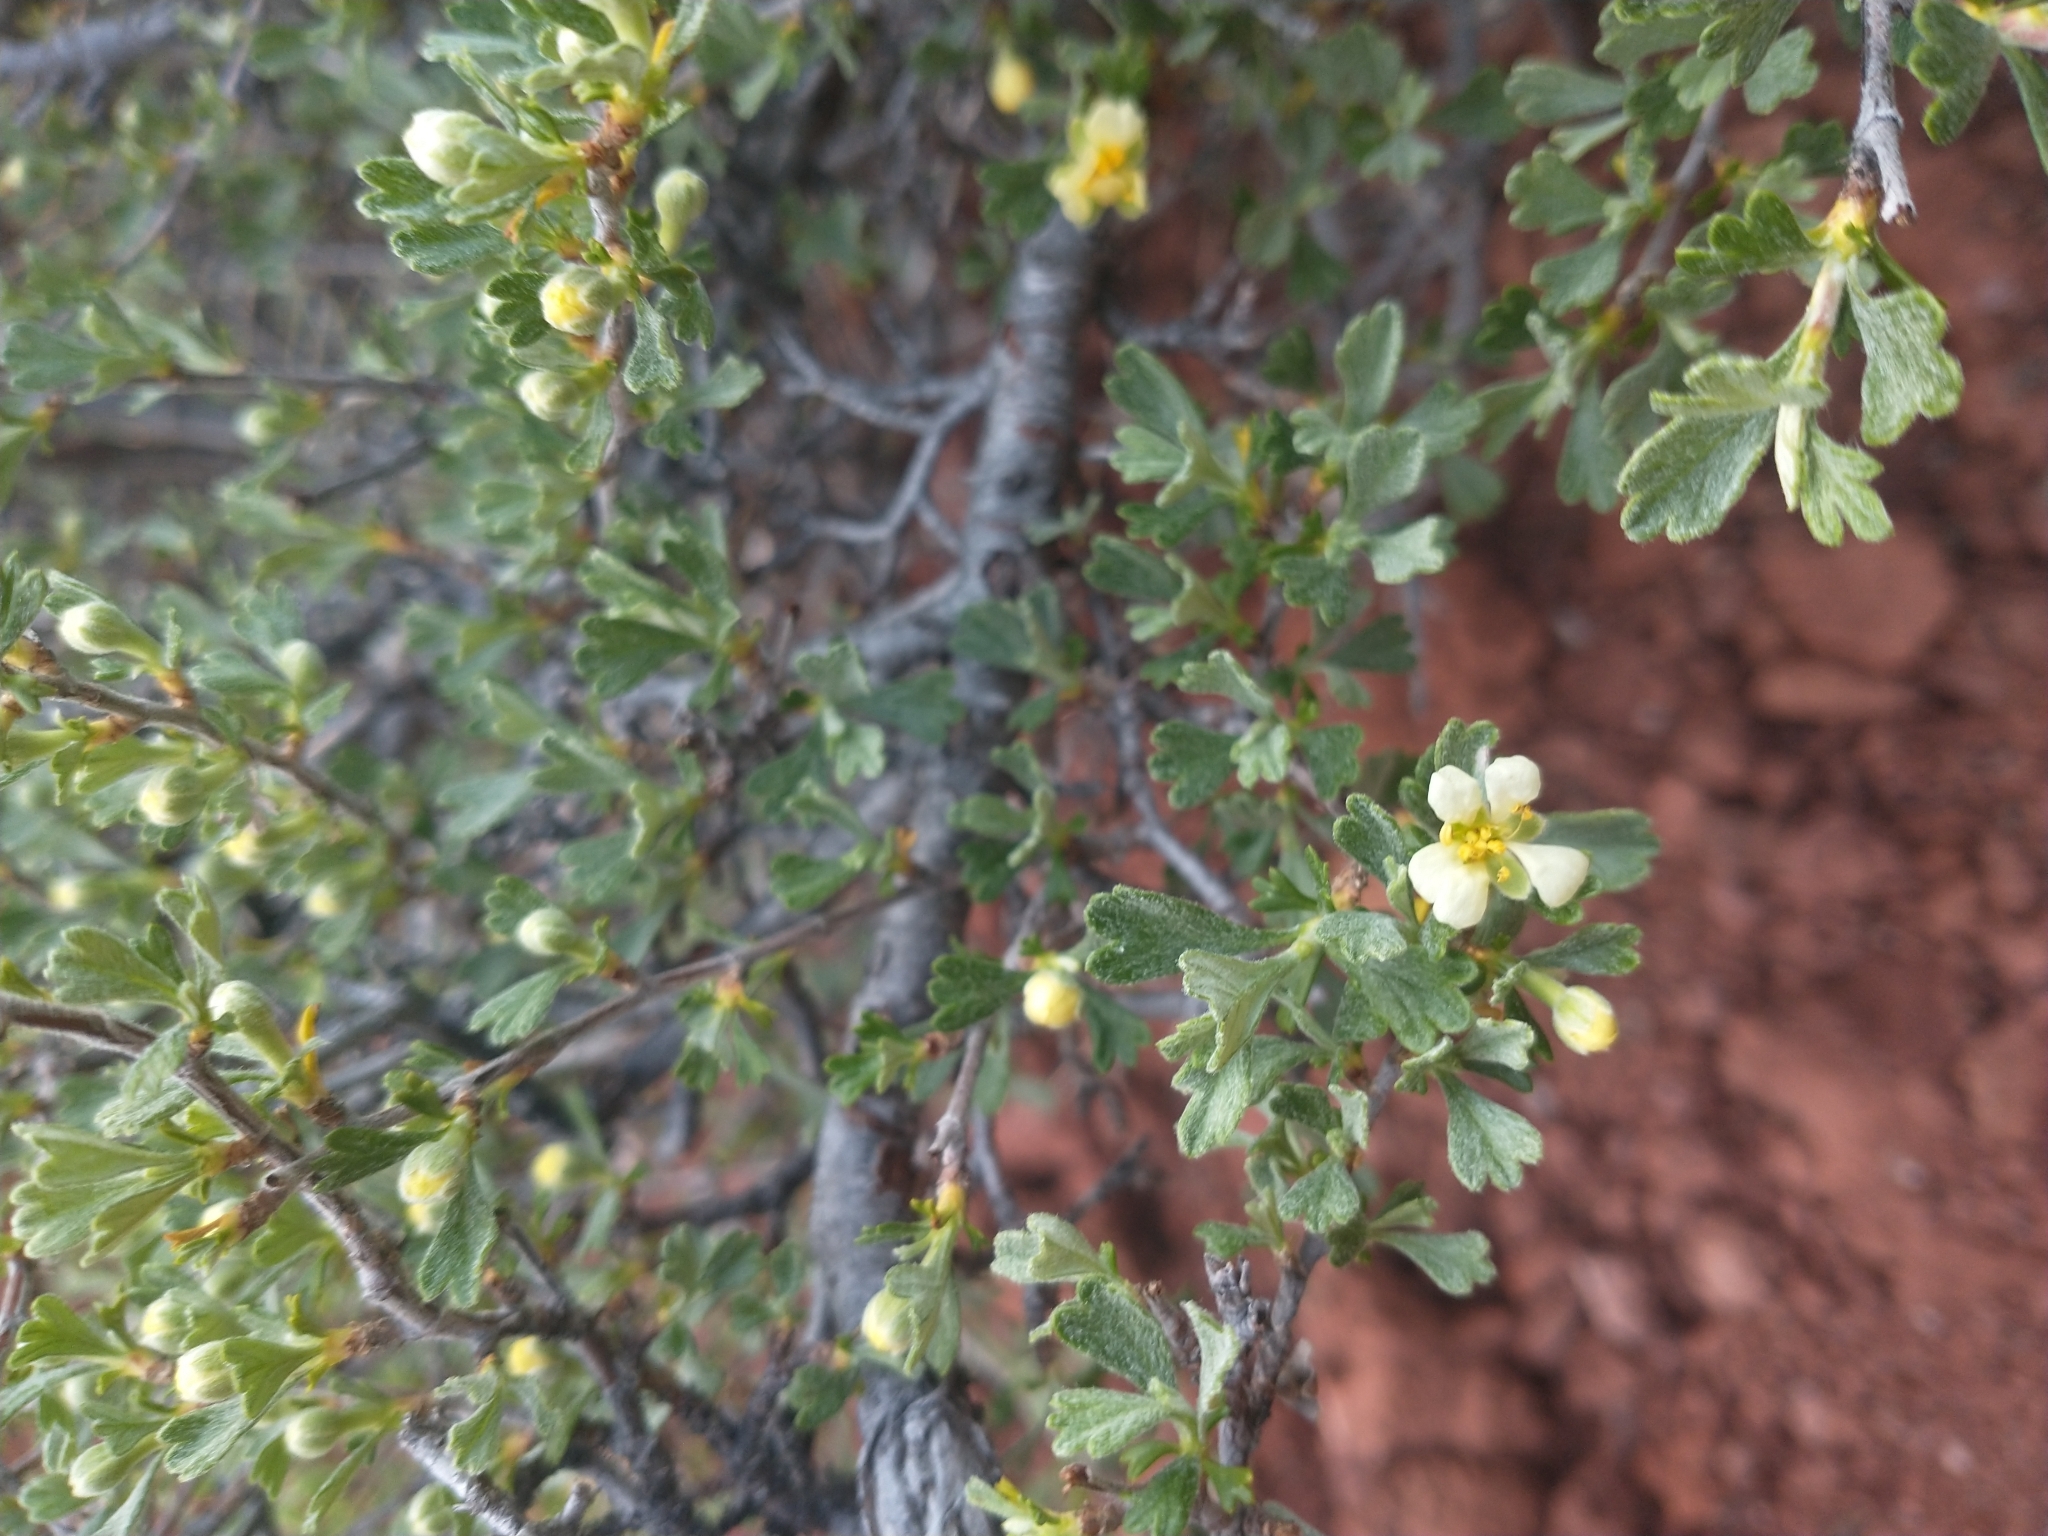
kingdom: Plantae
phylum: Tracheophyta
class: Magnoliopsida
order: Rosales
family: Rosaceae
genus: Purshia
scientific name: Purshia tridentata
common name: Antelope bitterbrush
